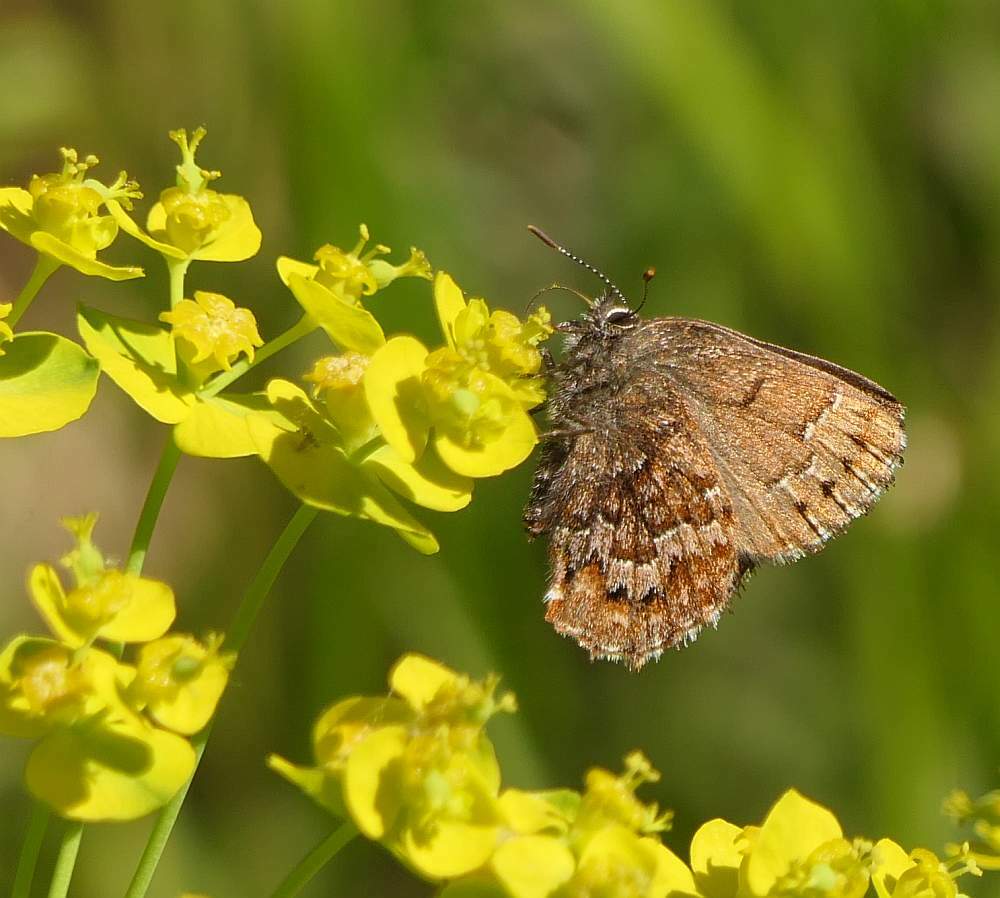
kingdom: Animalia
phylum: Arthropoda
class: Insecta
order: Lepidoptera
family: Lycaenidae
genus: Incisalia
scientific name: Incisalia niphon
